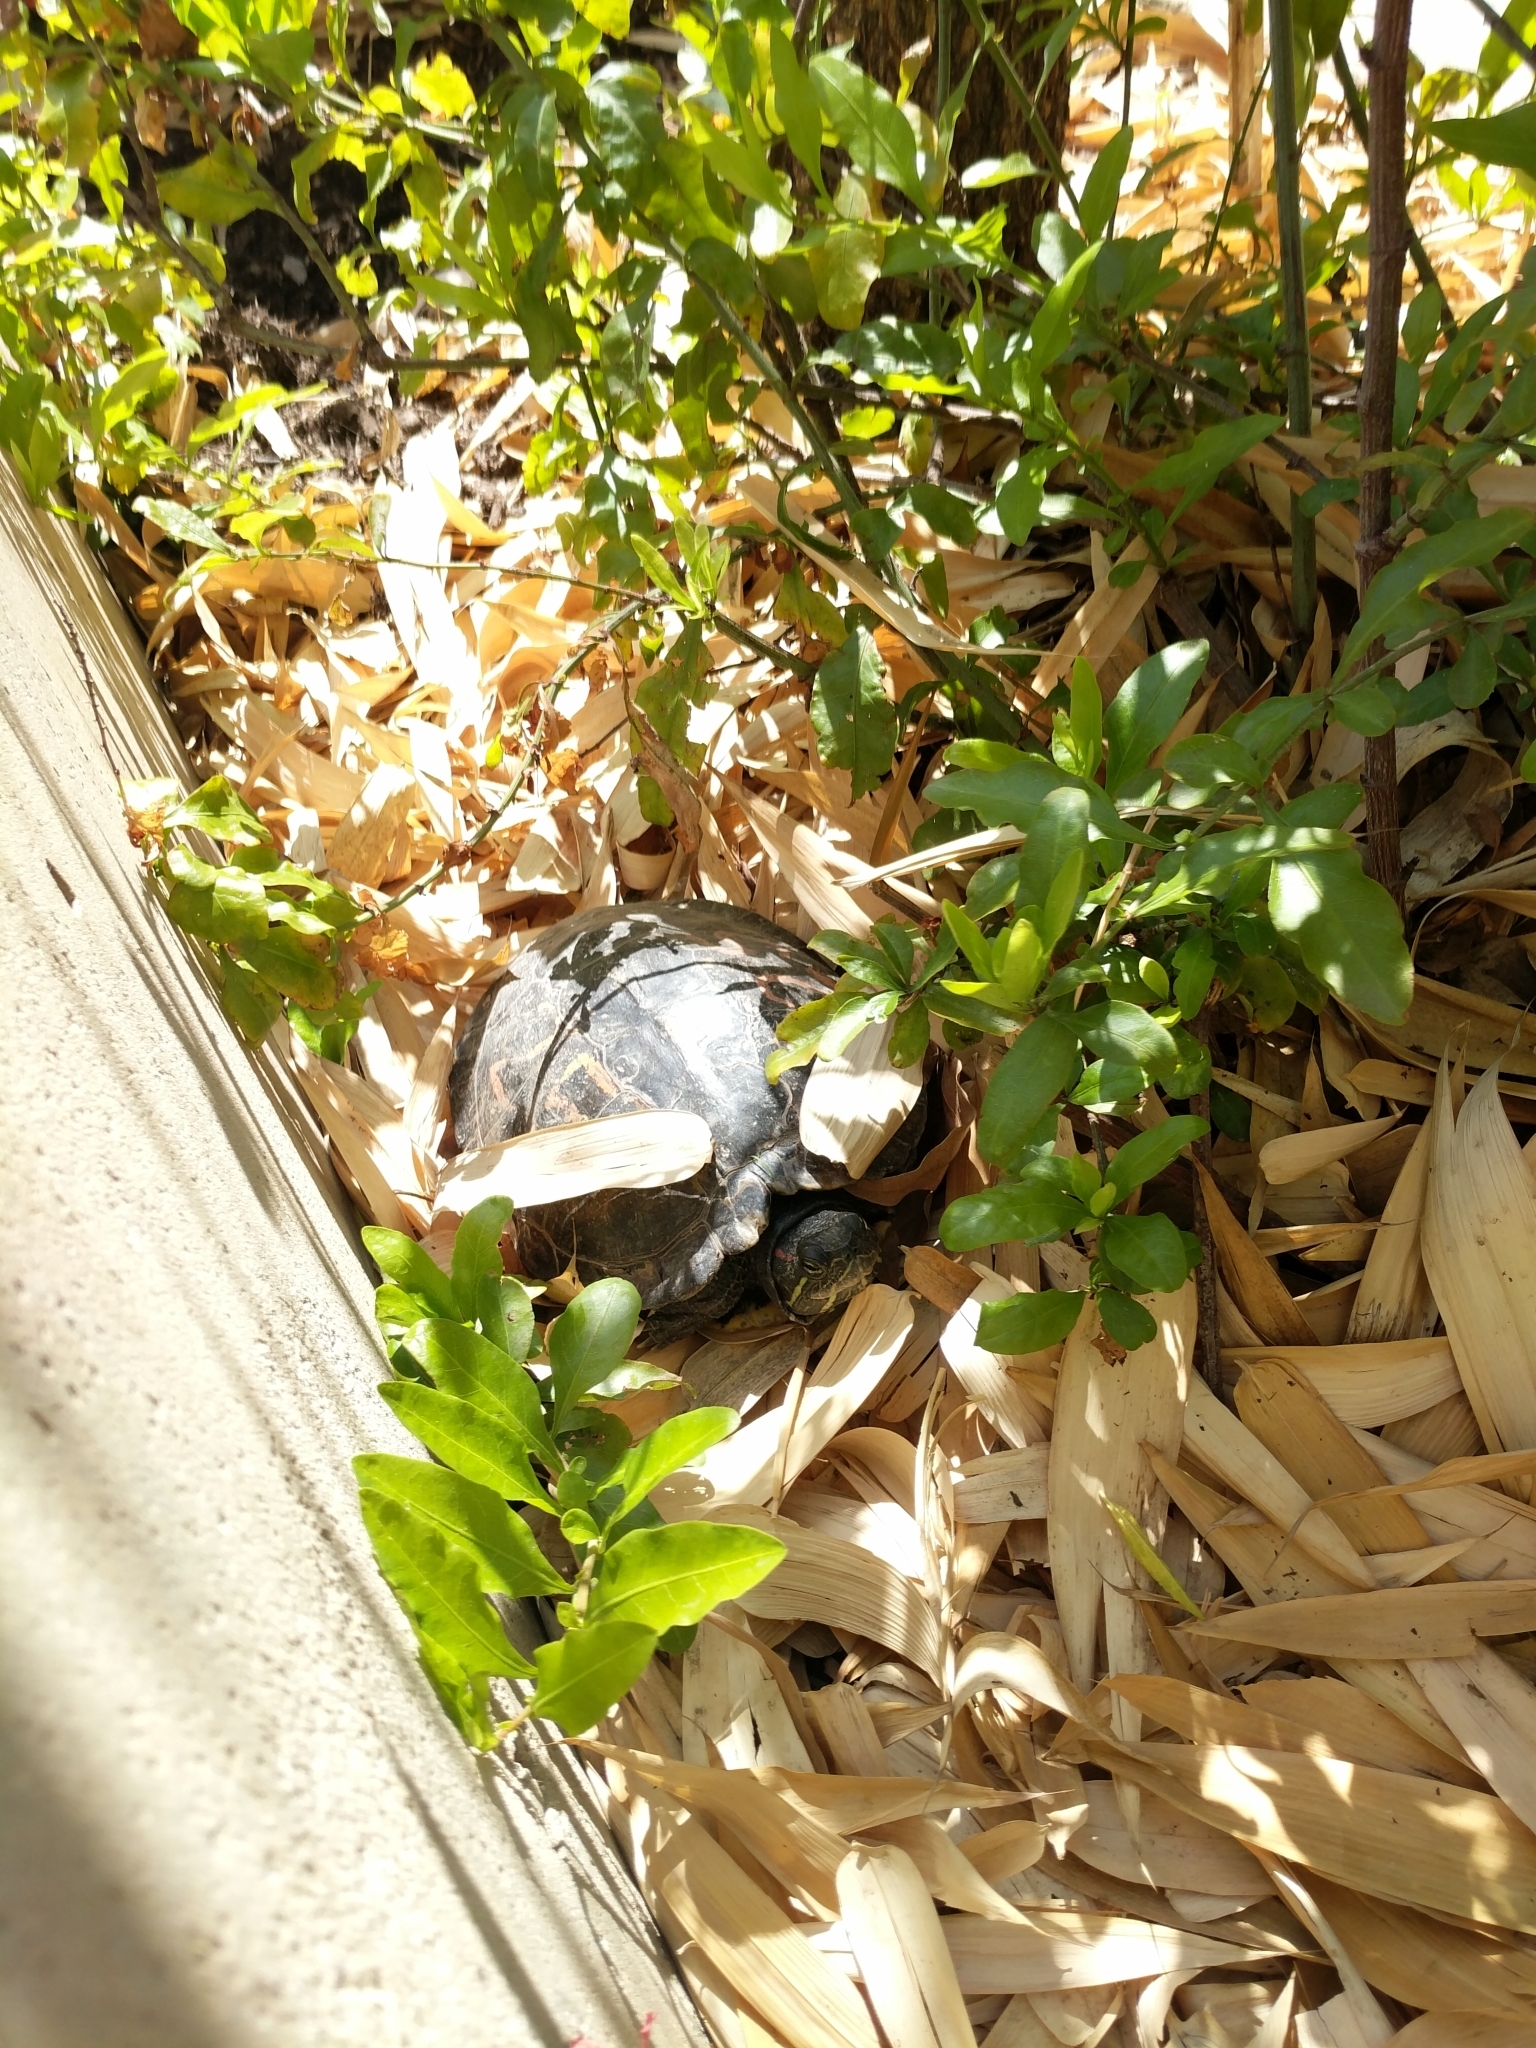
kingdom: Animalia
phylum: Chordata
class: Testudines
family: Emydidae
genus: Trachemys
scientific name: Trachemys scripta
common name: Slider
